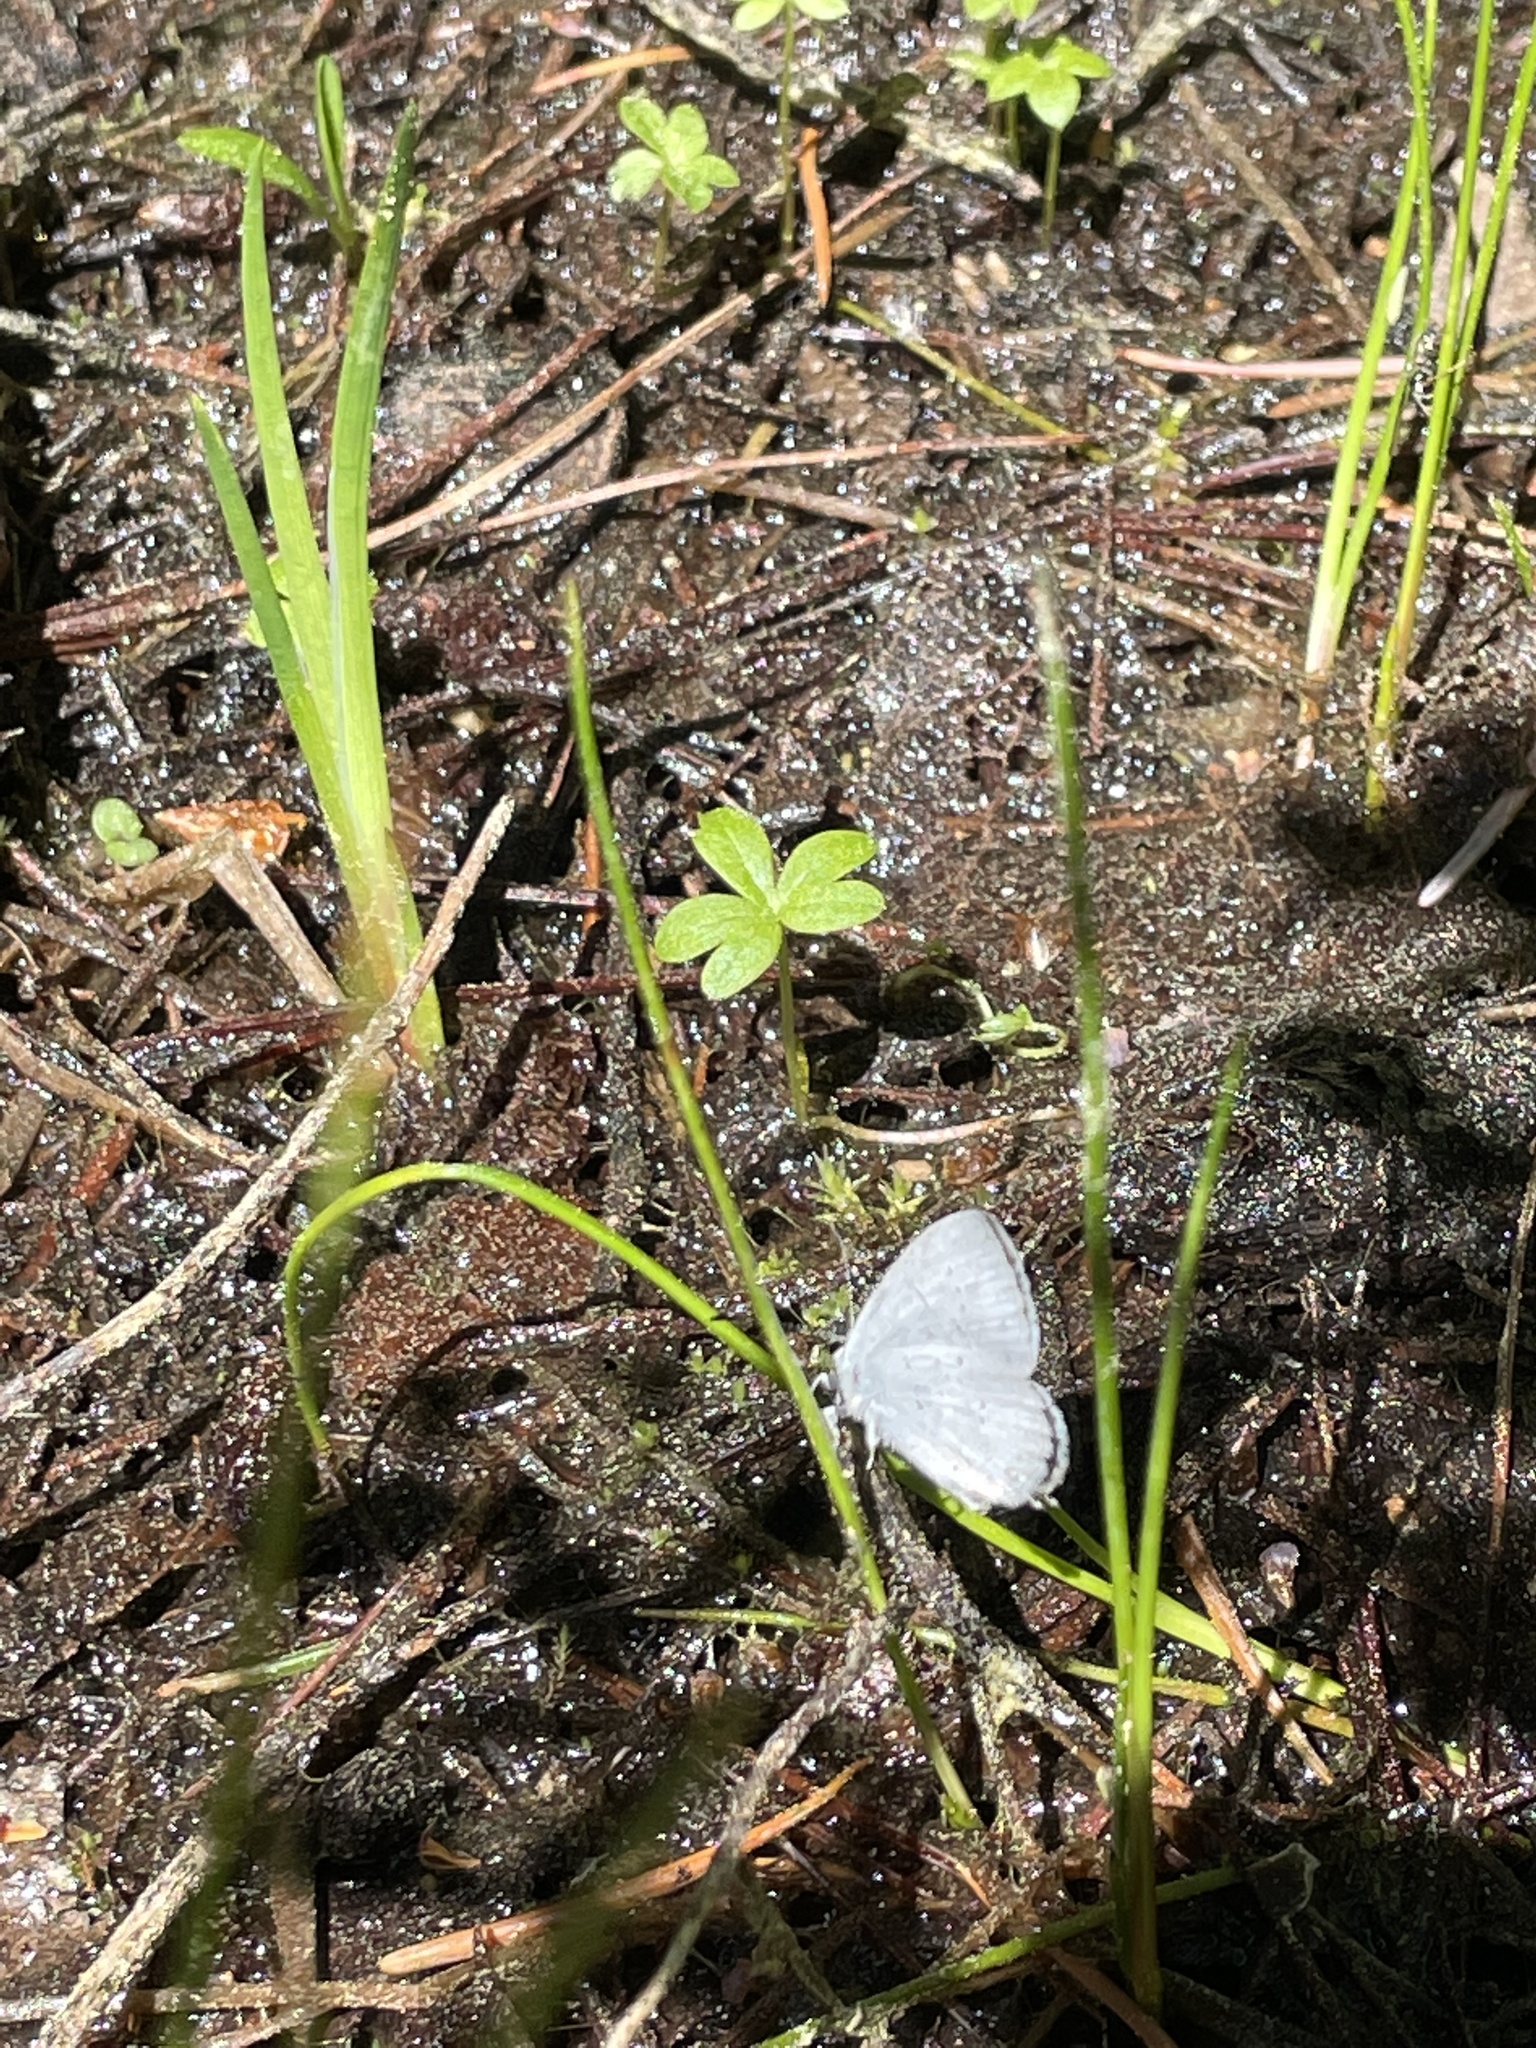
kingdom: Animalia
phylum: Arthropoda
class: Insecta
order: Lepidoptera
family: Lycaenidae
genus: Elkalyce
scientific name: Elkalyce amyntula
